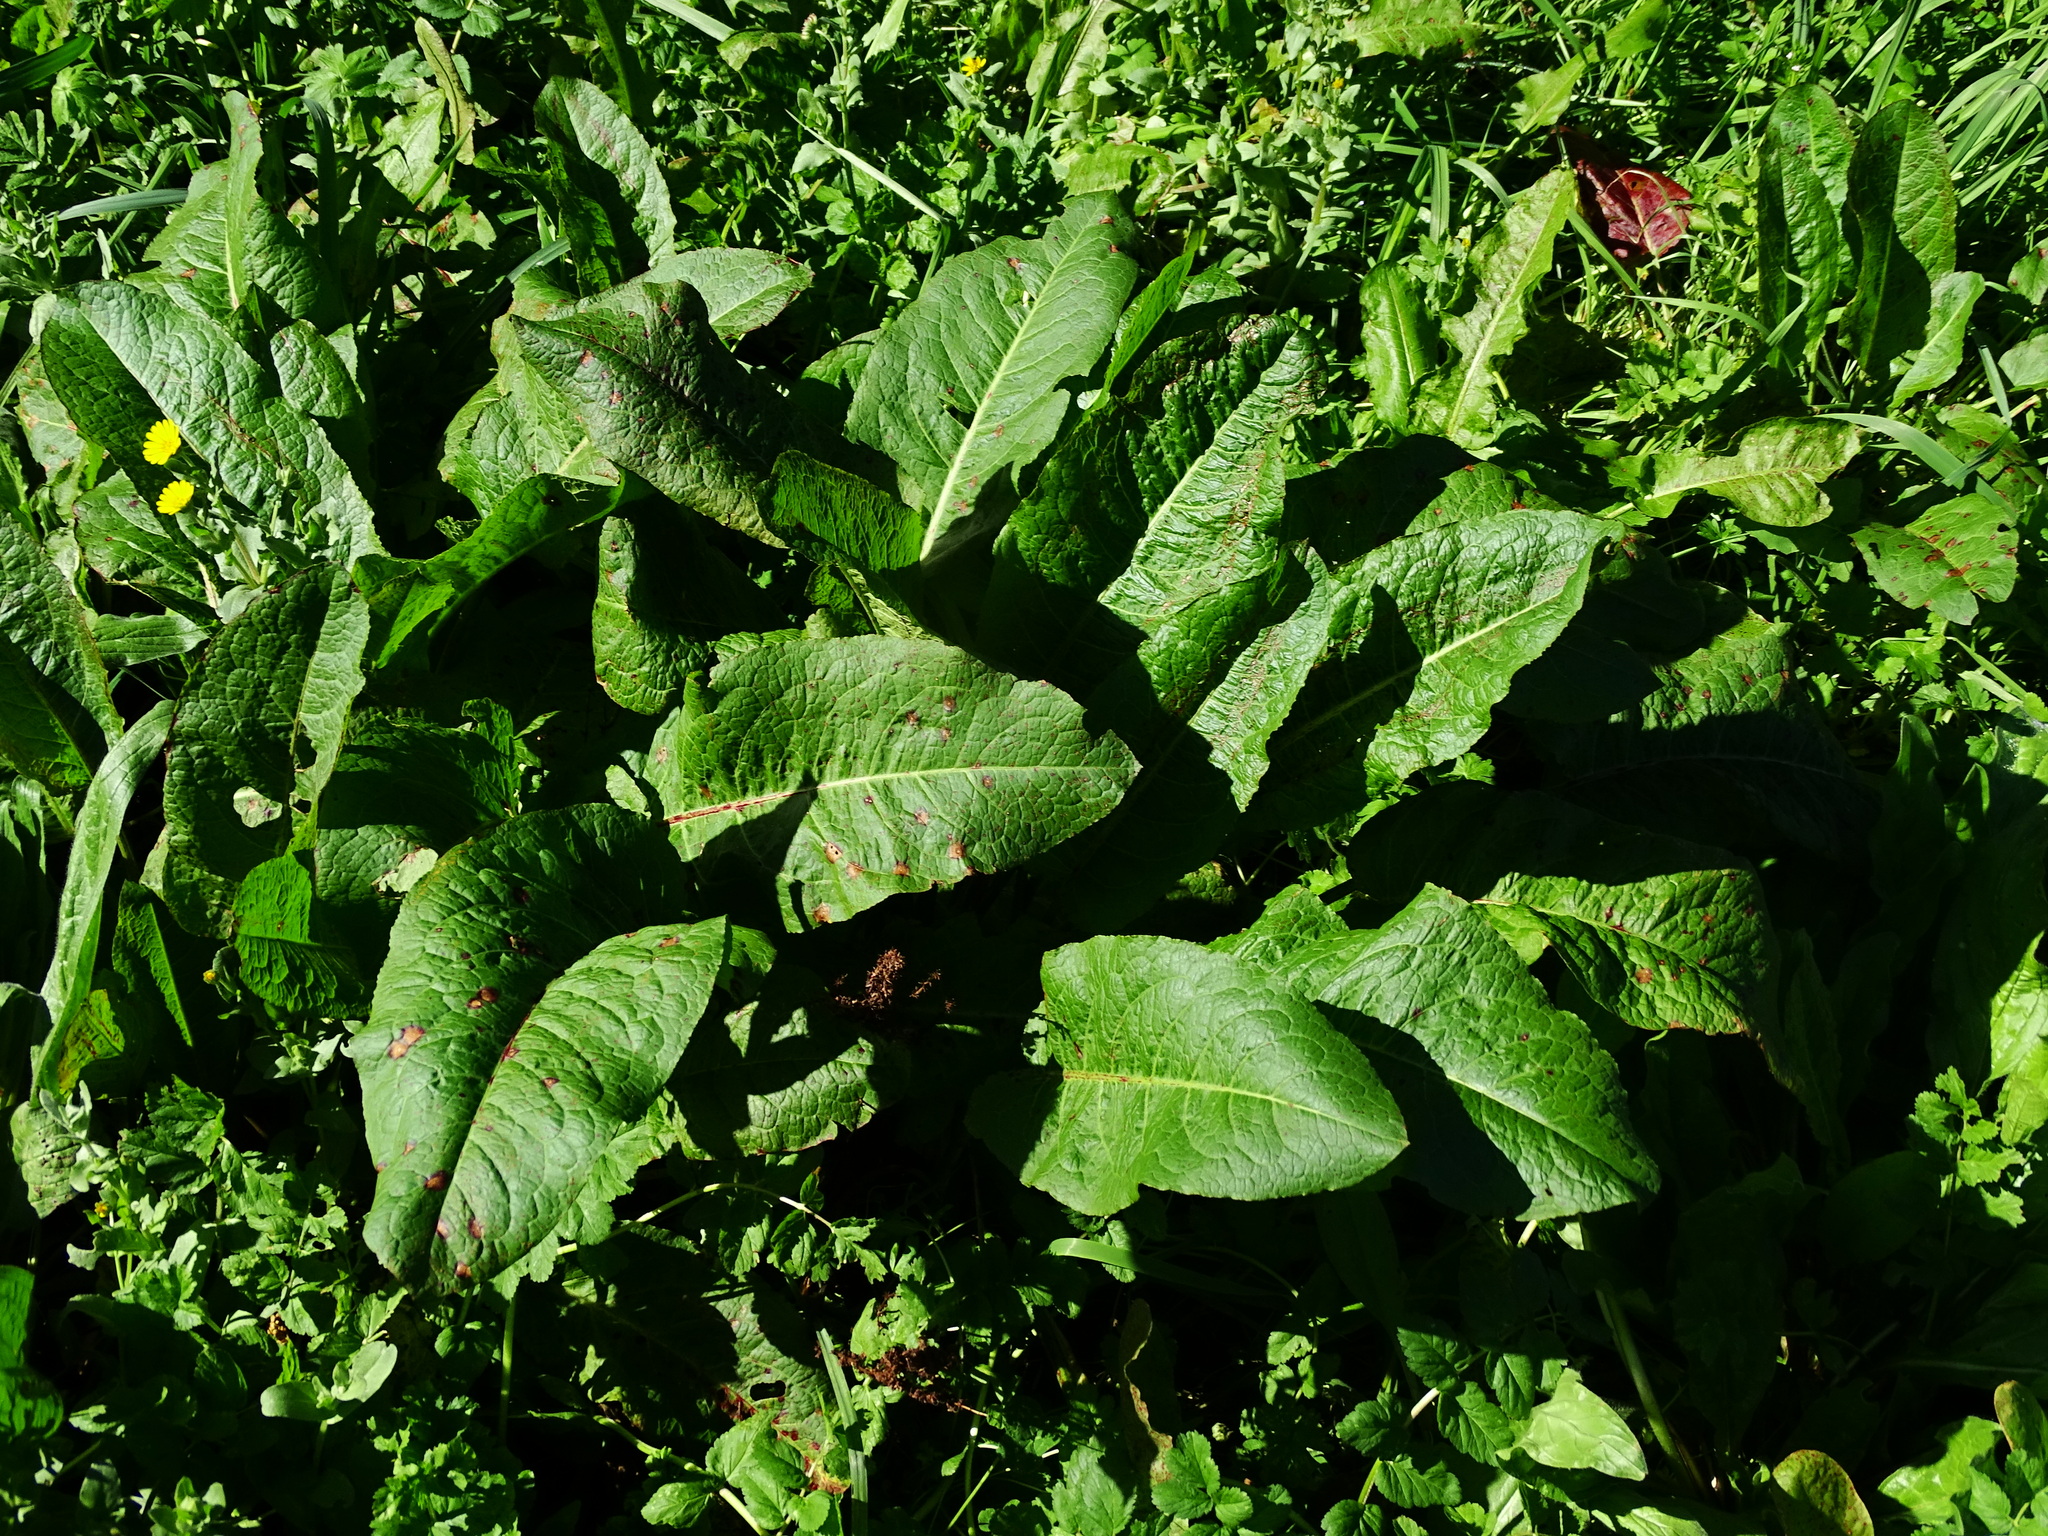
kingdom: Plantae
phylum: Tracheophyta
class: Magnoliopsida
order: Caryophyllales
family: Polygonaceae
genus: Rumex
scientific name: Rumex obtusifolius
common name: Bitter dock
